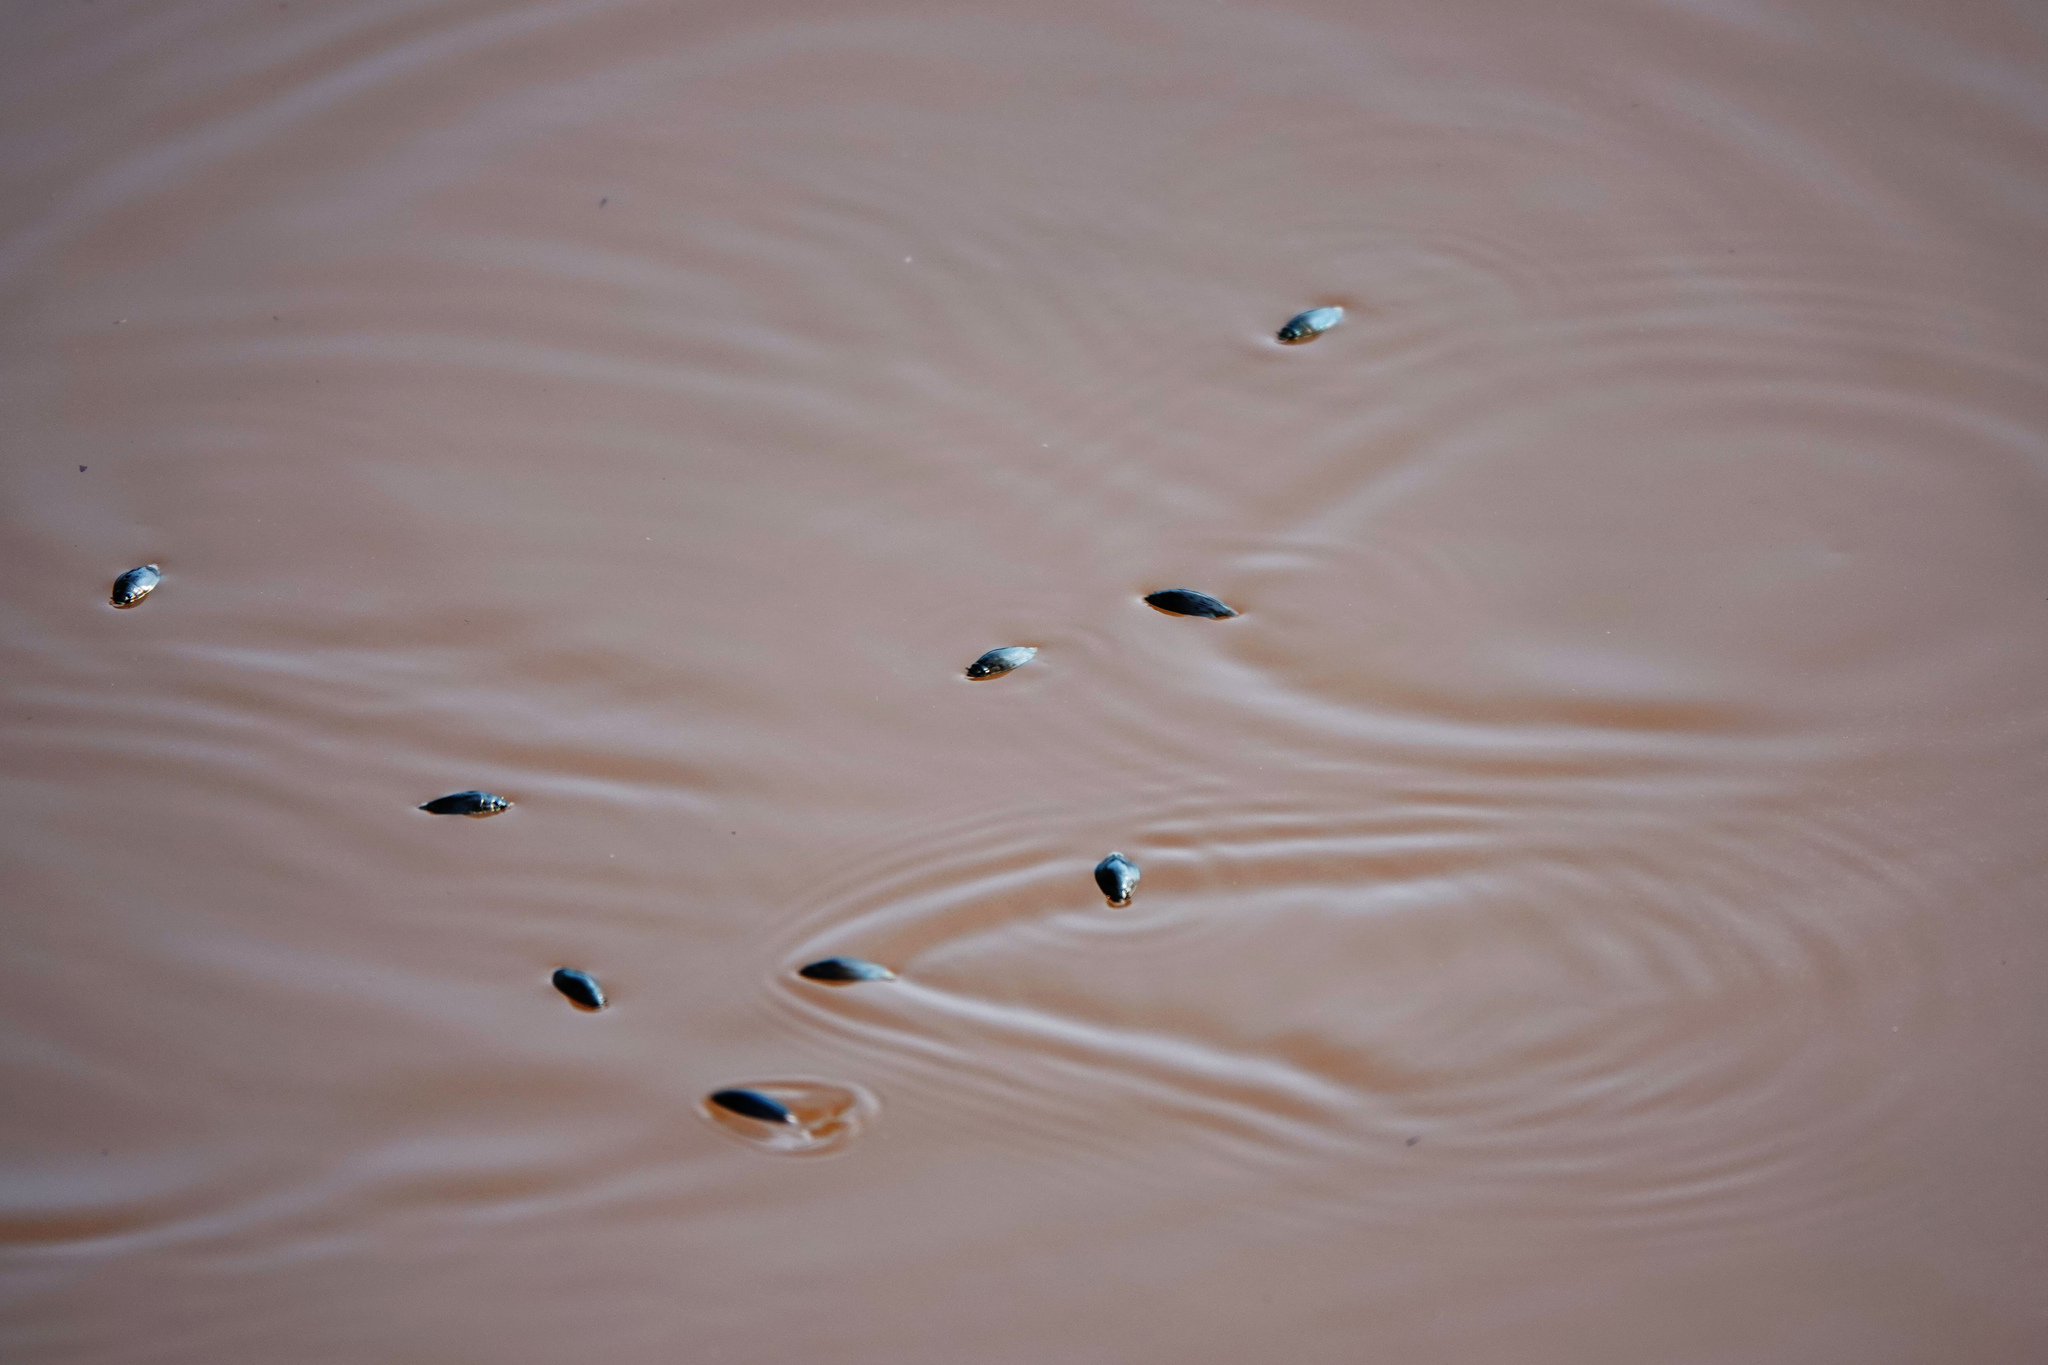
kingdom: Animalia
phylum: Arthropoda
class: Insecta
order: Coleoptera
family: Gyrinidae
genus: Dineutus
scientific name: Dineutus
